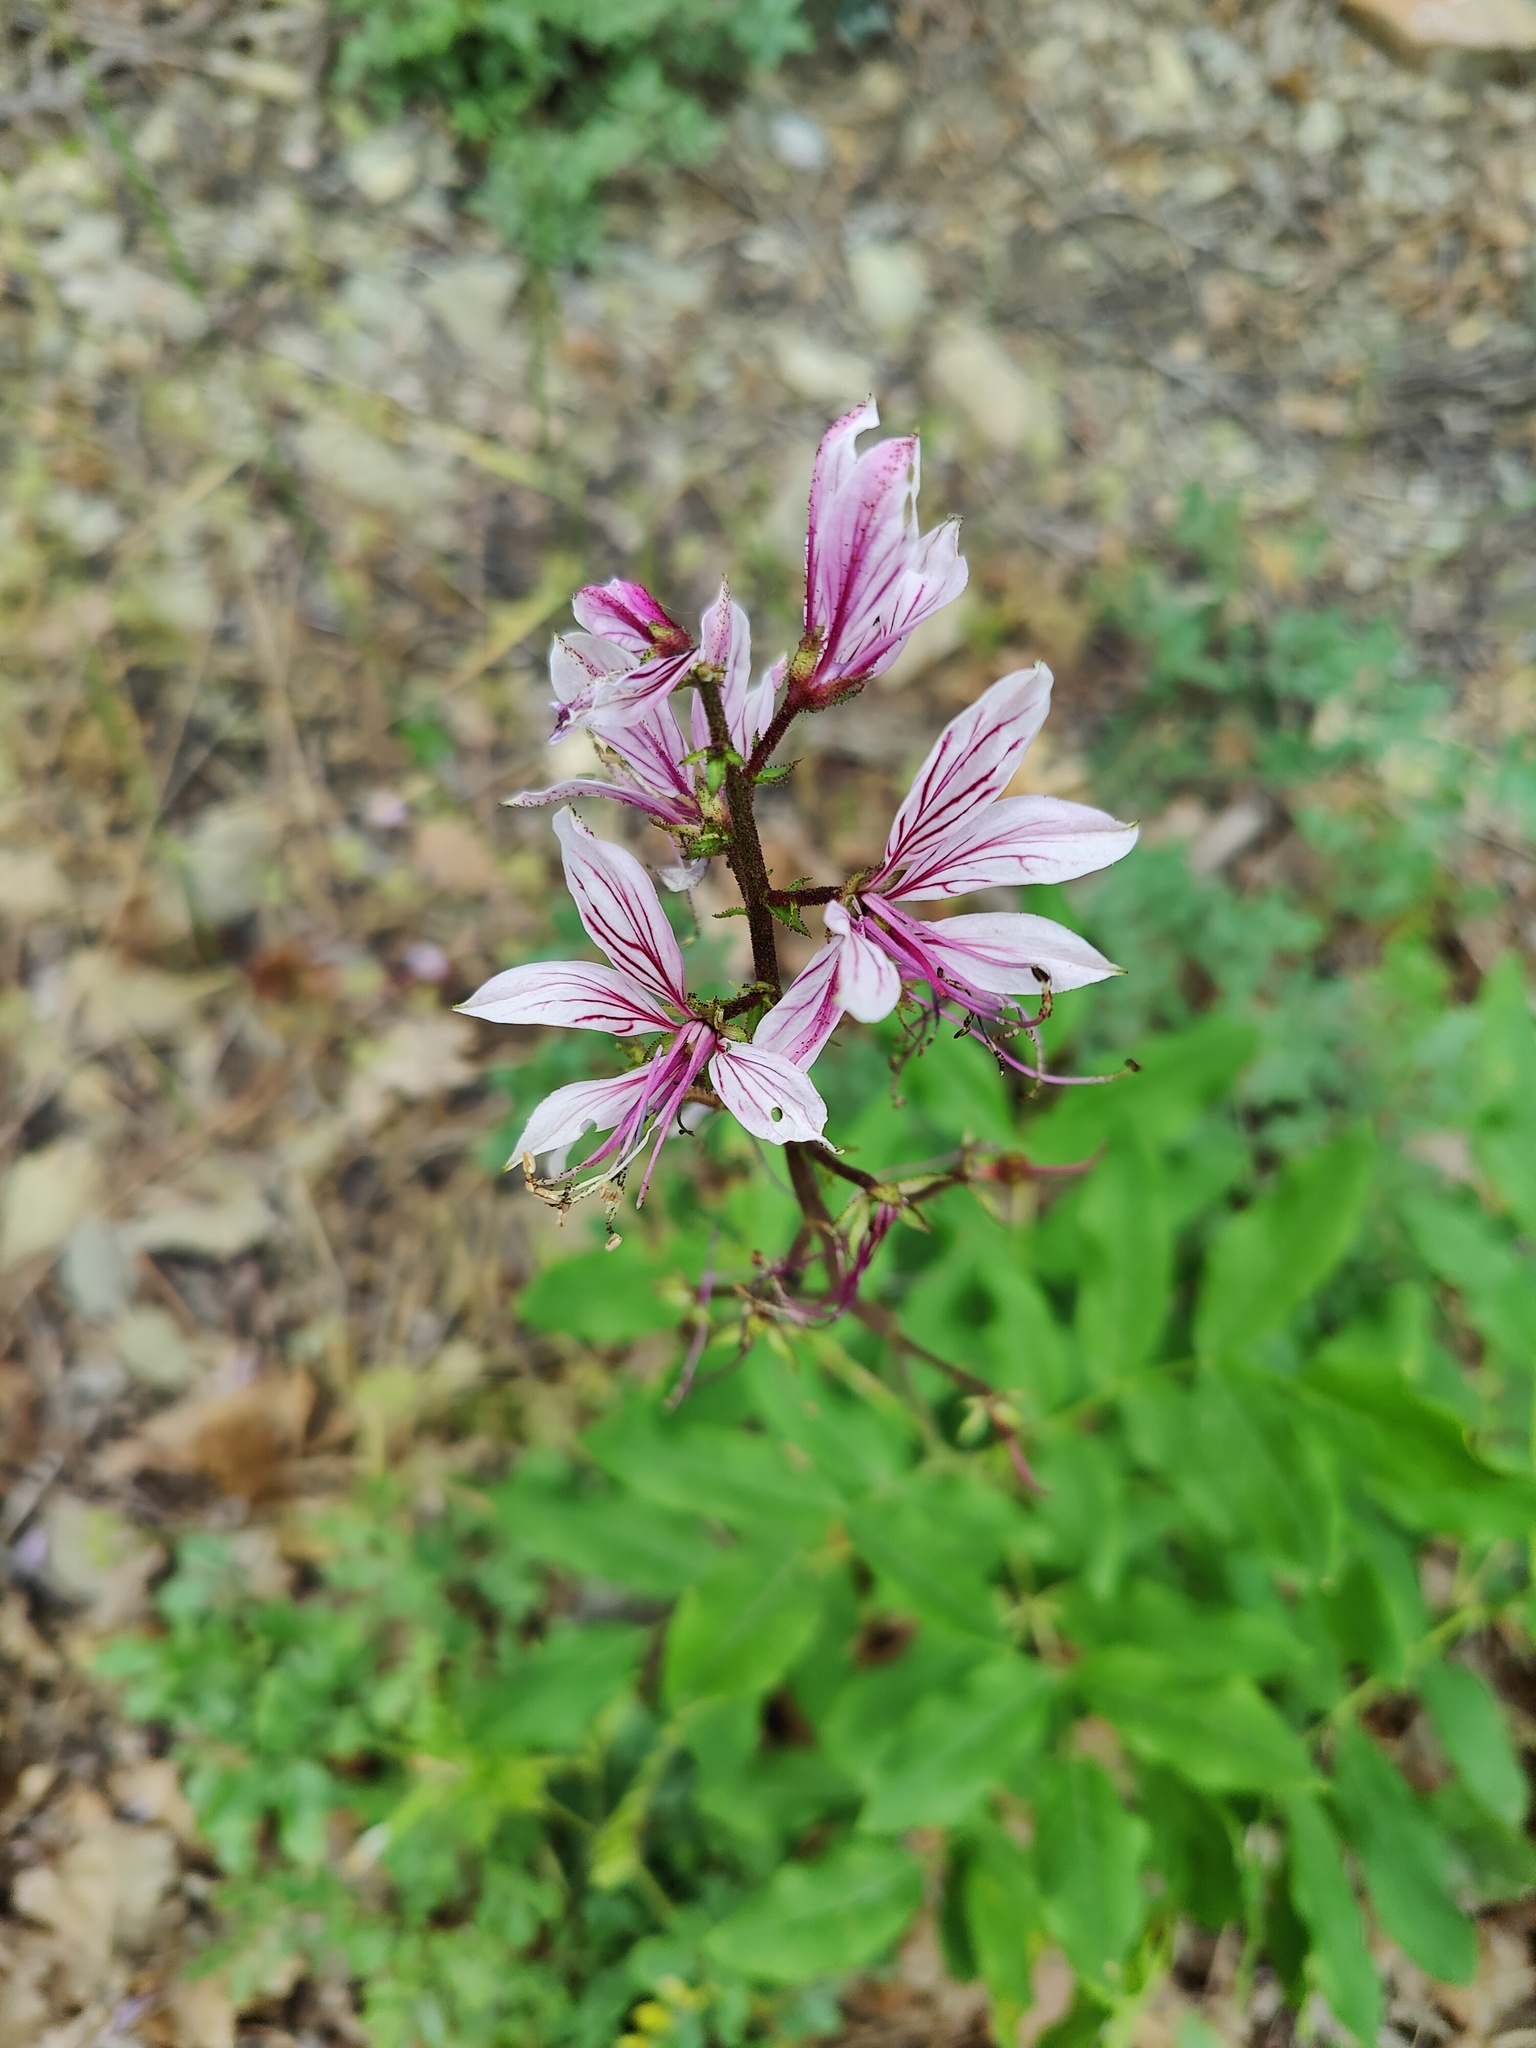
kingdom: Plantae
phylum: Tracheophyta
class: Magnoliopsida
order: Sapindales
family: Rutaceae
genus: Dictamnus
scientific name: Dictamnus albus
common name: Gasplant
